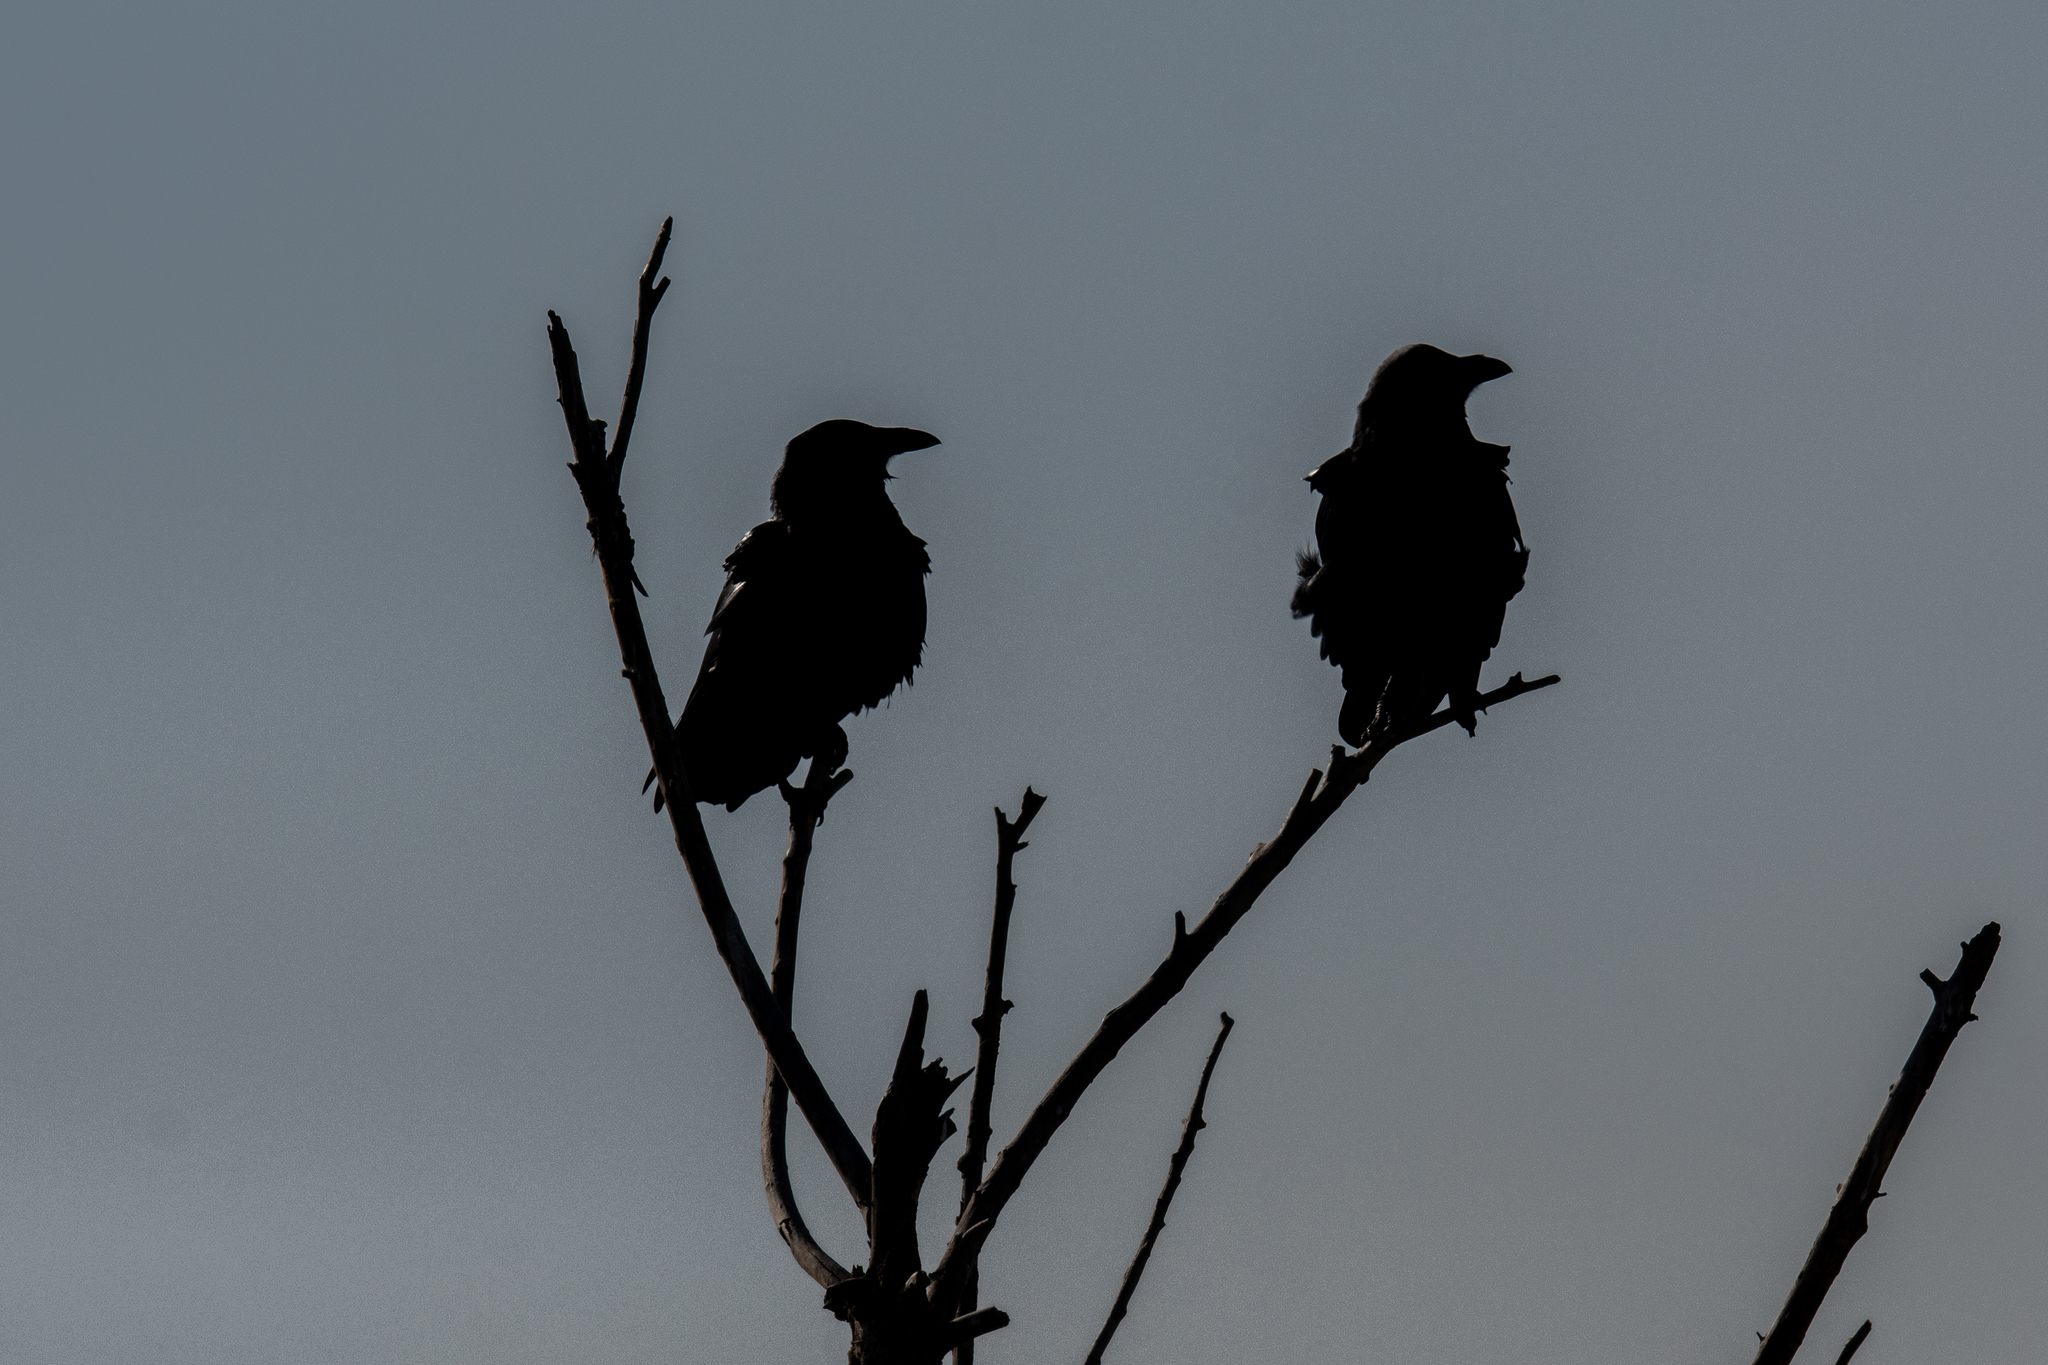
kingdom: Animalia
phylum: Chordata
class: Aves
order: Passeriformes
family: Corvidae
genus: Corvus
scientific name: Corvus corax
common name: Common raven
